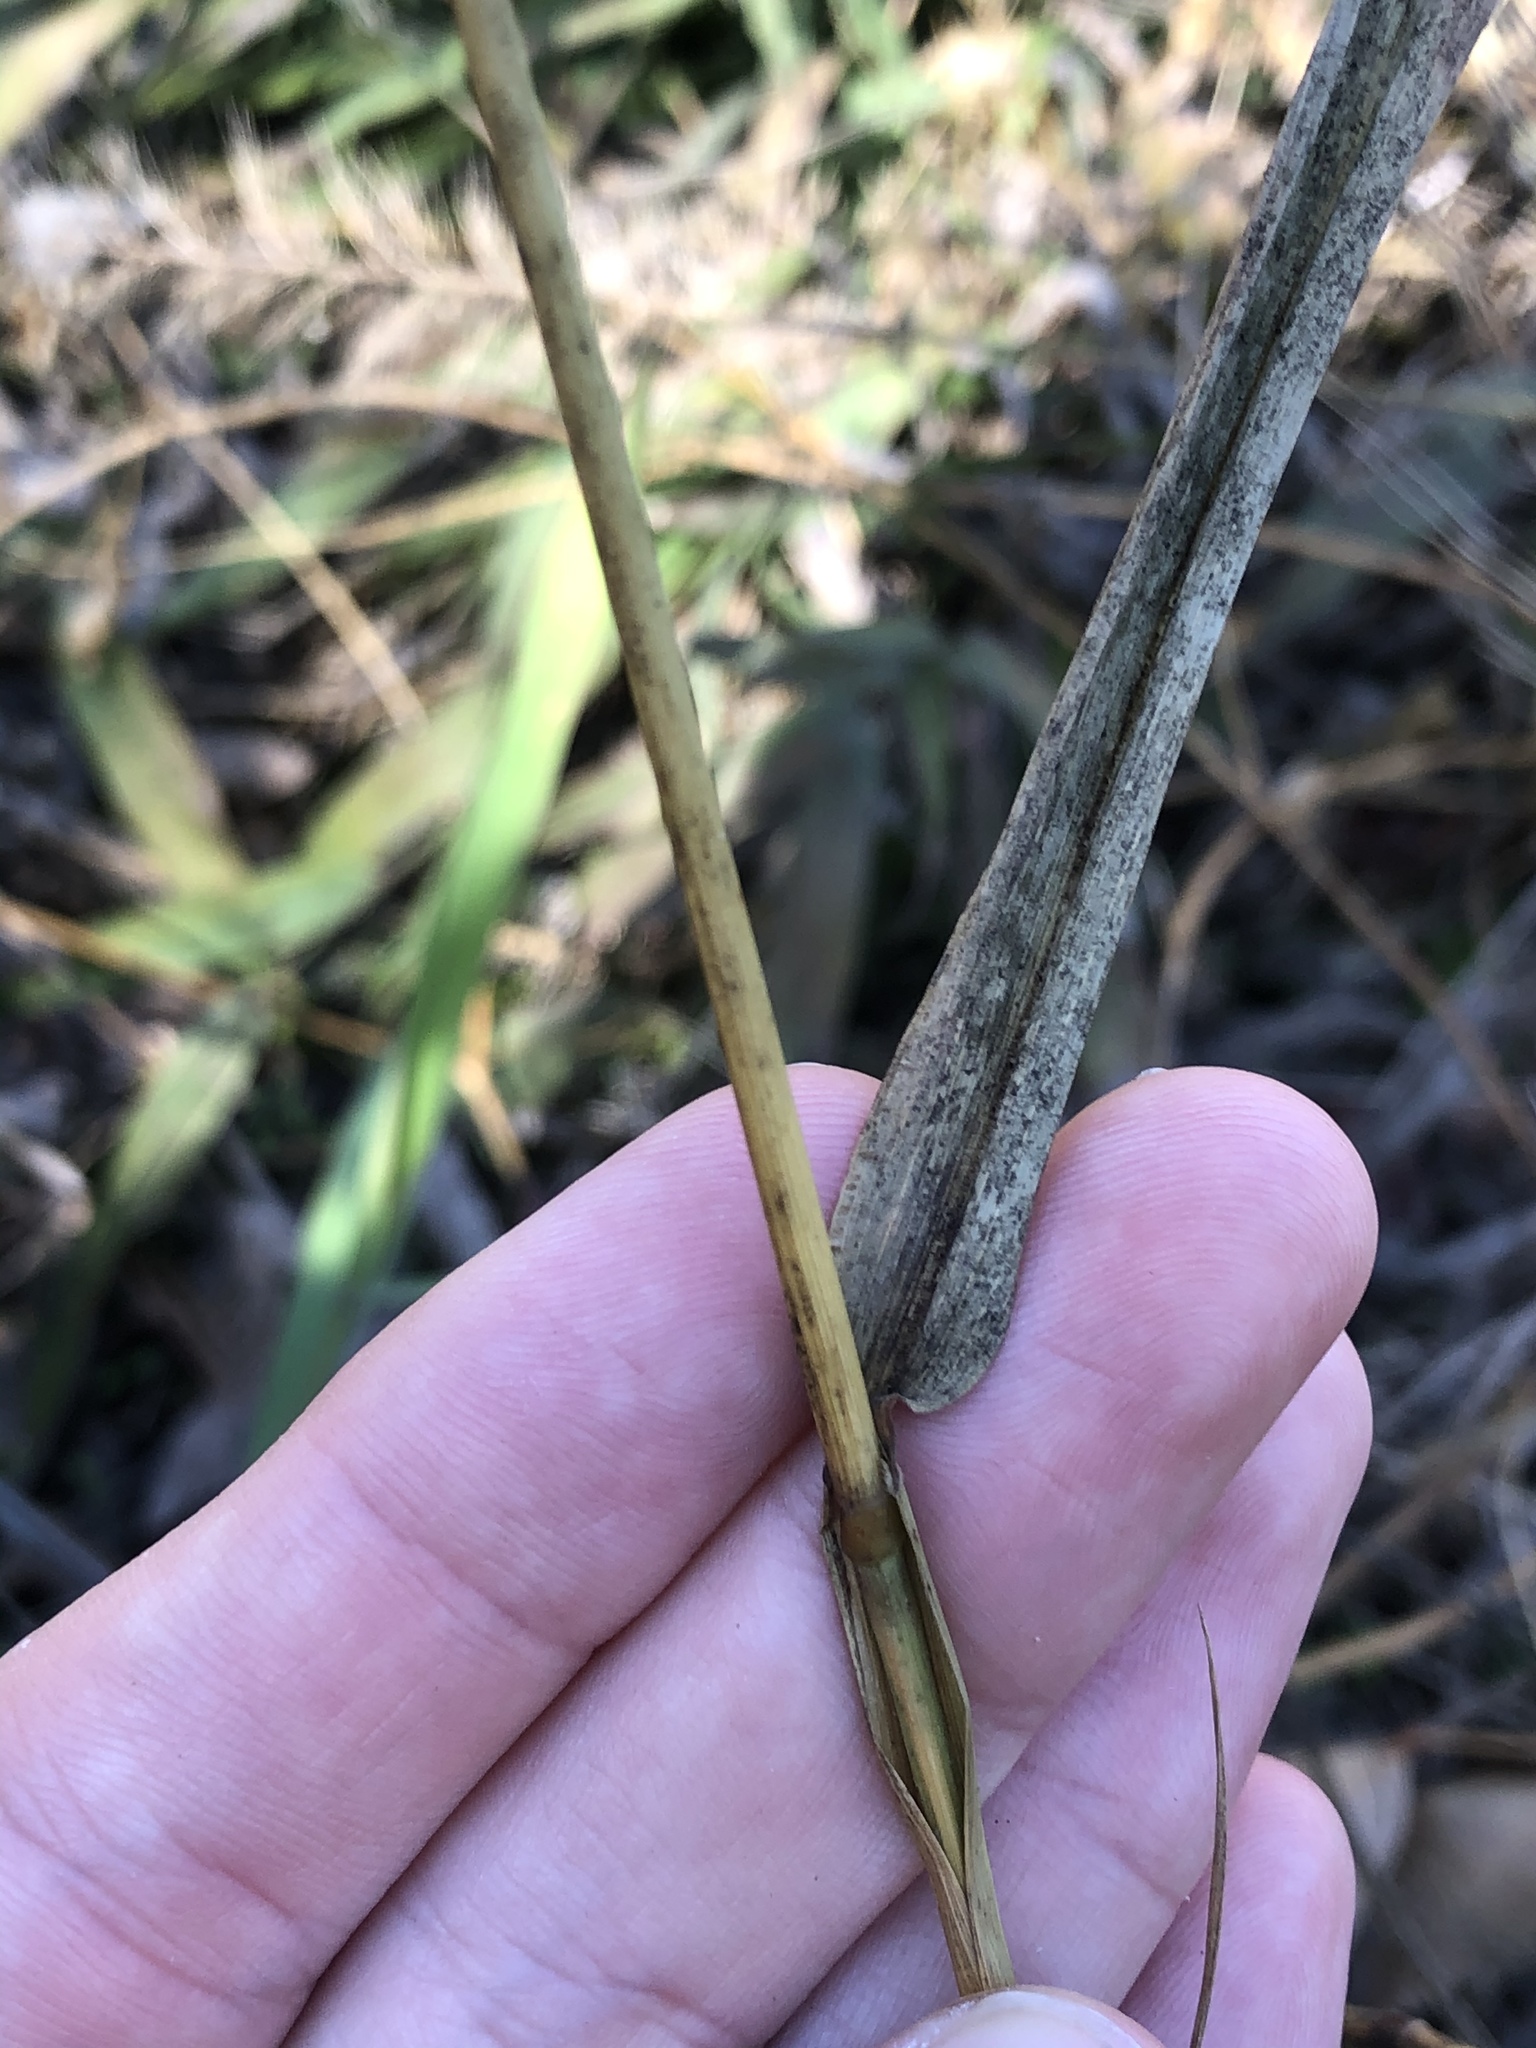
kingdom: Plantae
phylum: Tracheophyta
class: Liliopsida
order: Poales
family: Poaceae
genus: Setaria
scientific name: Setaria scheelei
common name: Southwestern bristle grass
